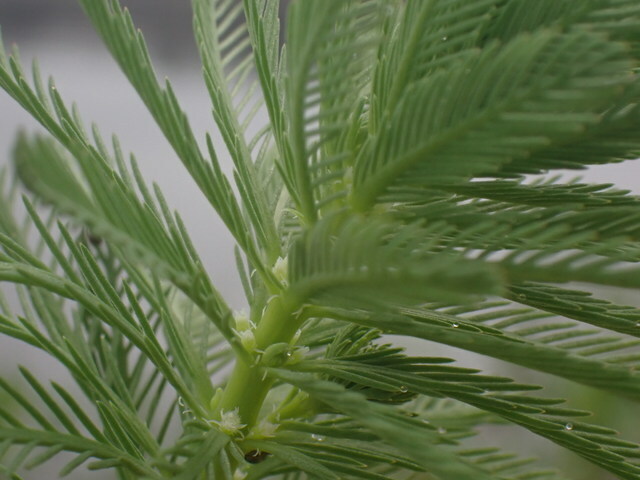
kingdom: Plantae
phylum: Tracheophyta
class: Magnoliopsida
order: Saxifragales
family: Haloragaceae
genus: Myriophyllum
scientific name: Myriophyllum aquaticum
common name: Parrot's feather
